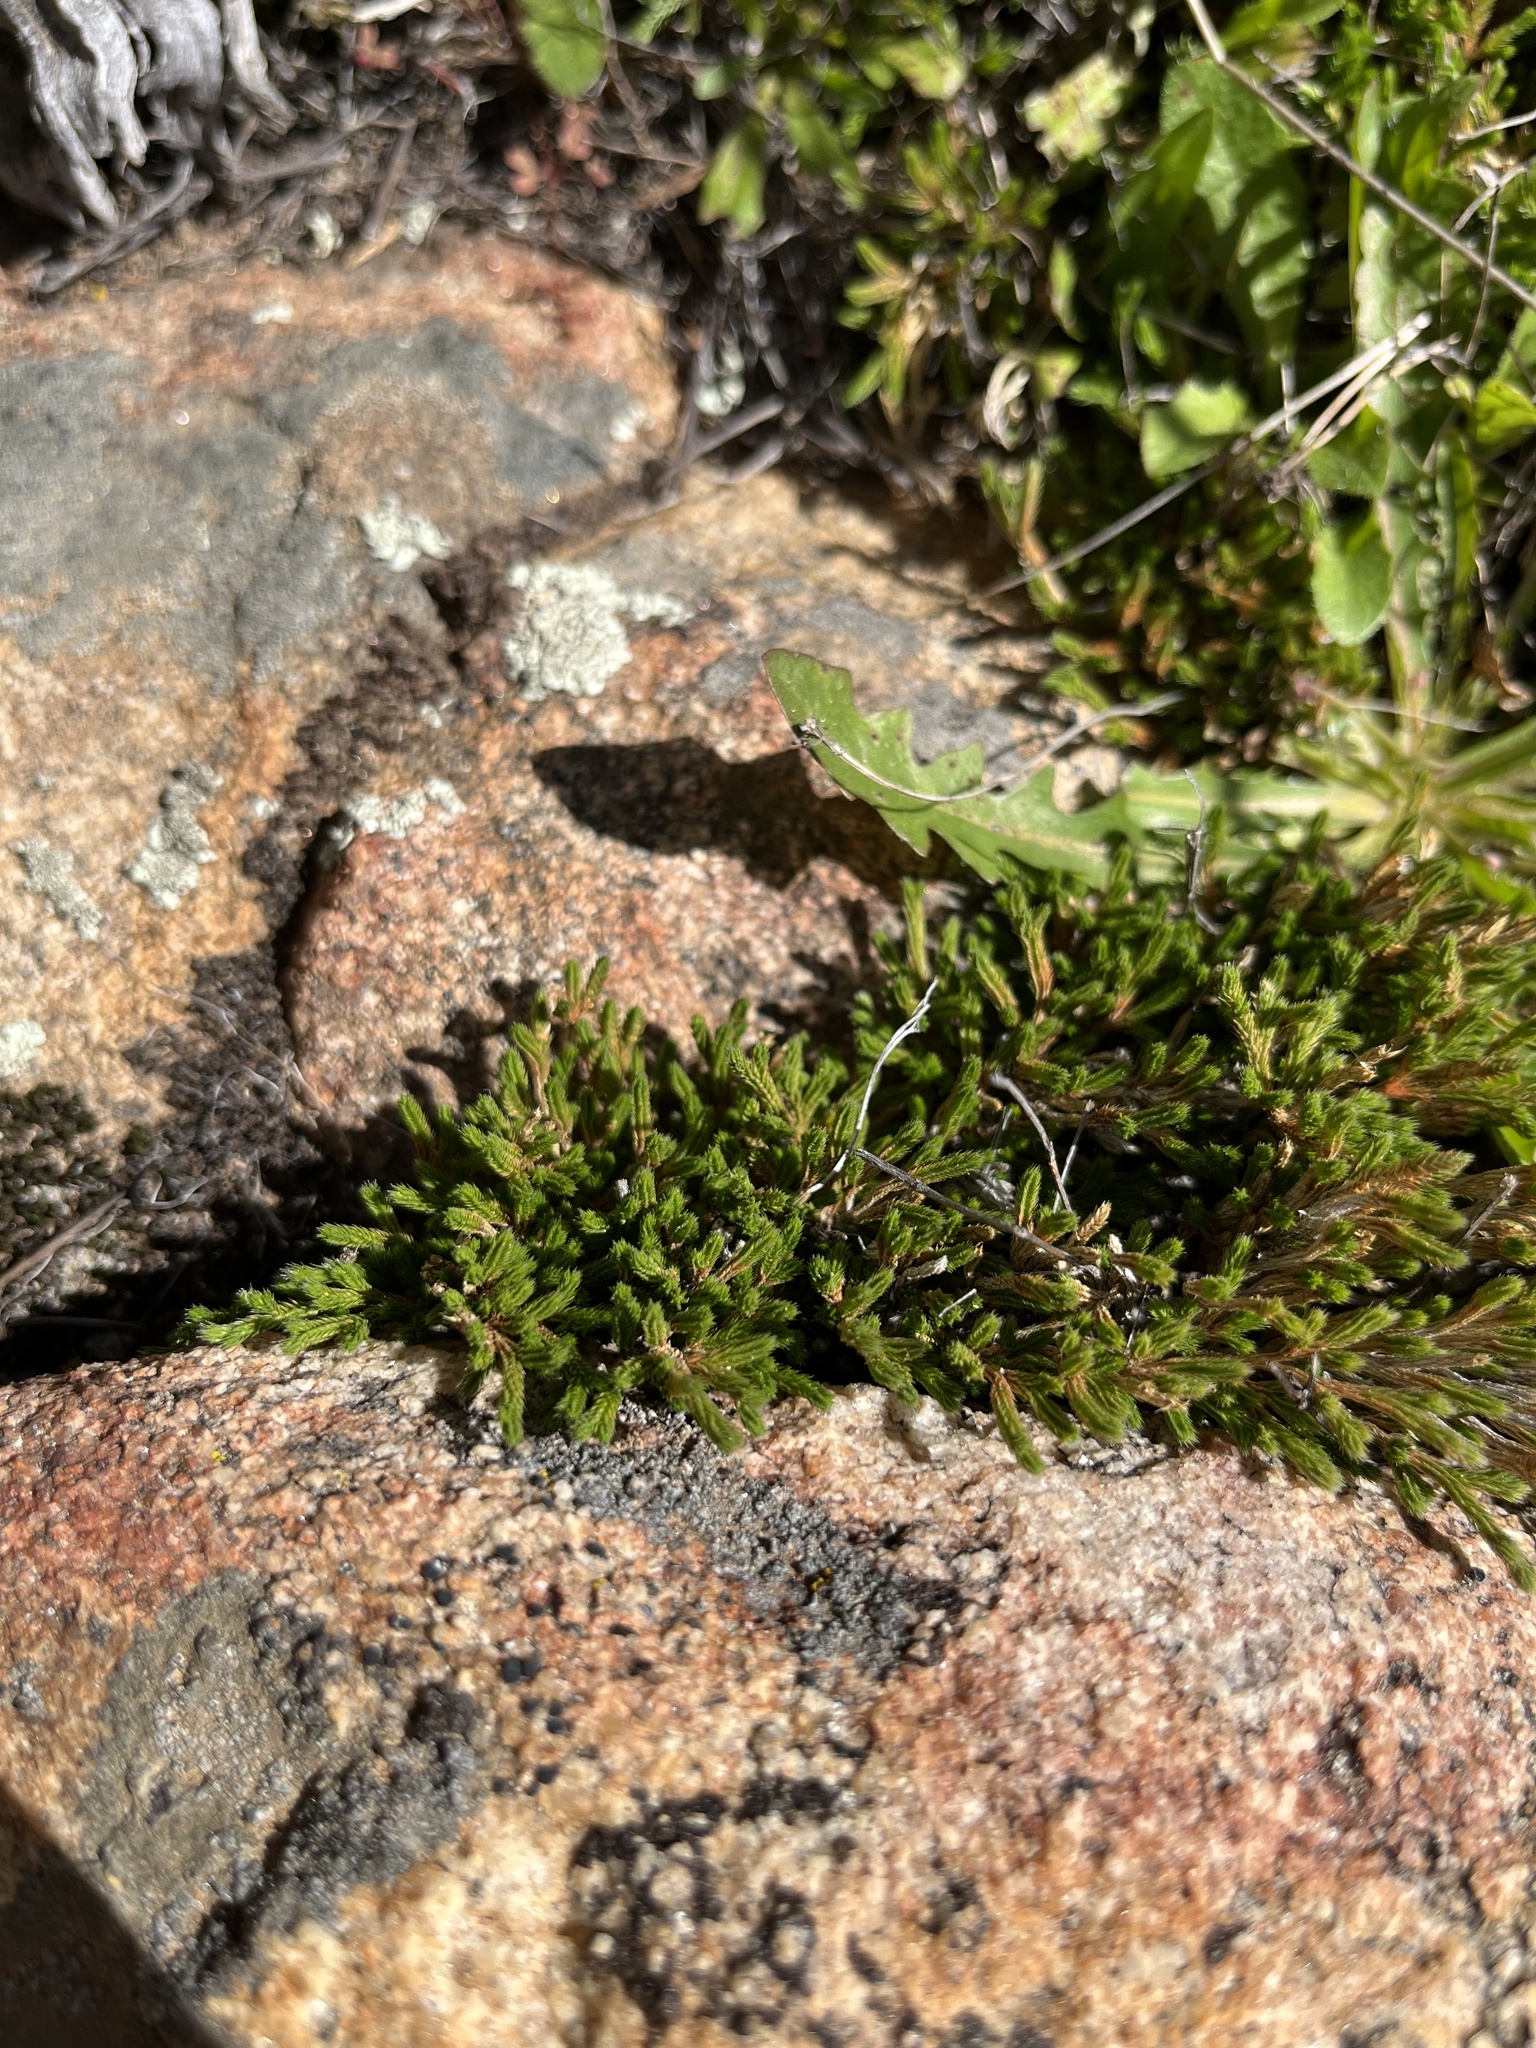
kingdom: Plantae
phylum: Tracheophyta
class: Lycopodiopsida
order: Selaginellales
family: Selaginellaceae
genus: Selaginella
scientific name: Selaginella bigelovii
